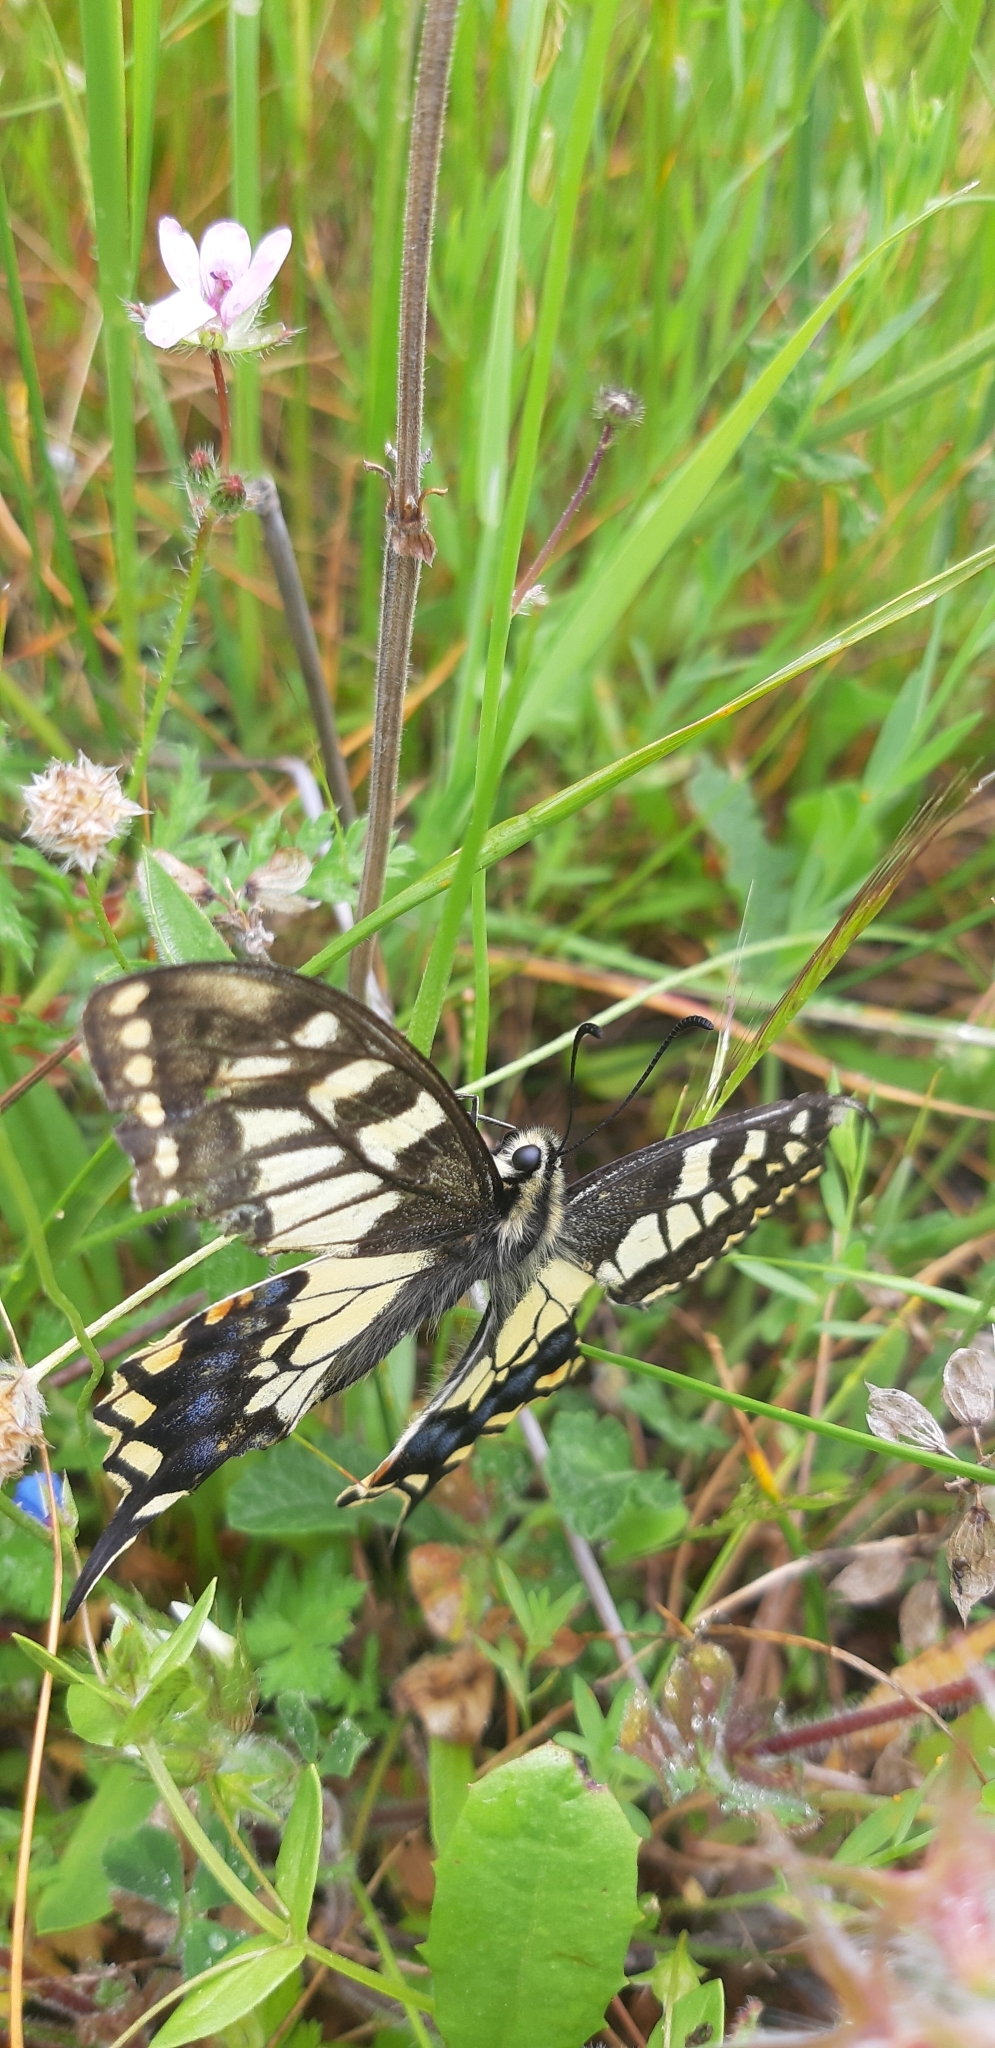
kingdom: Animalia
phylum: Arthropoda
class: Insecta
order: Lepidoptera
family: Papilionidae
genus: Papilio
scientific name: Papilio machaon
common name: Swallowtail
